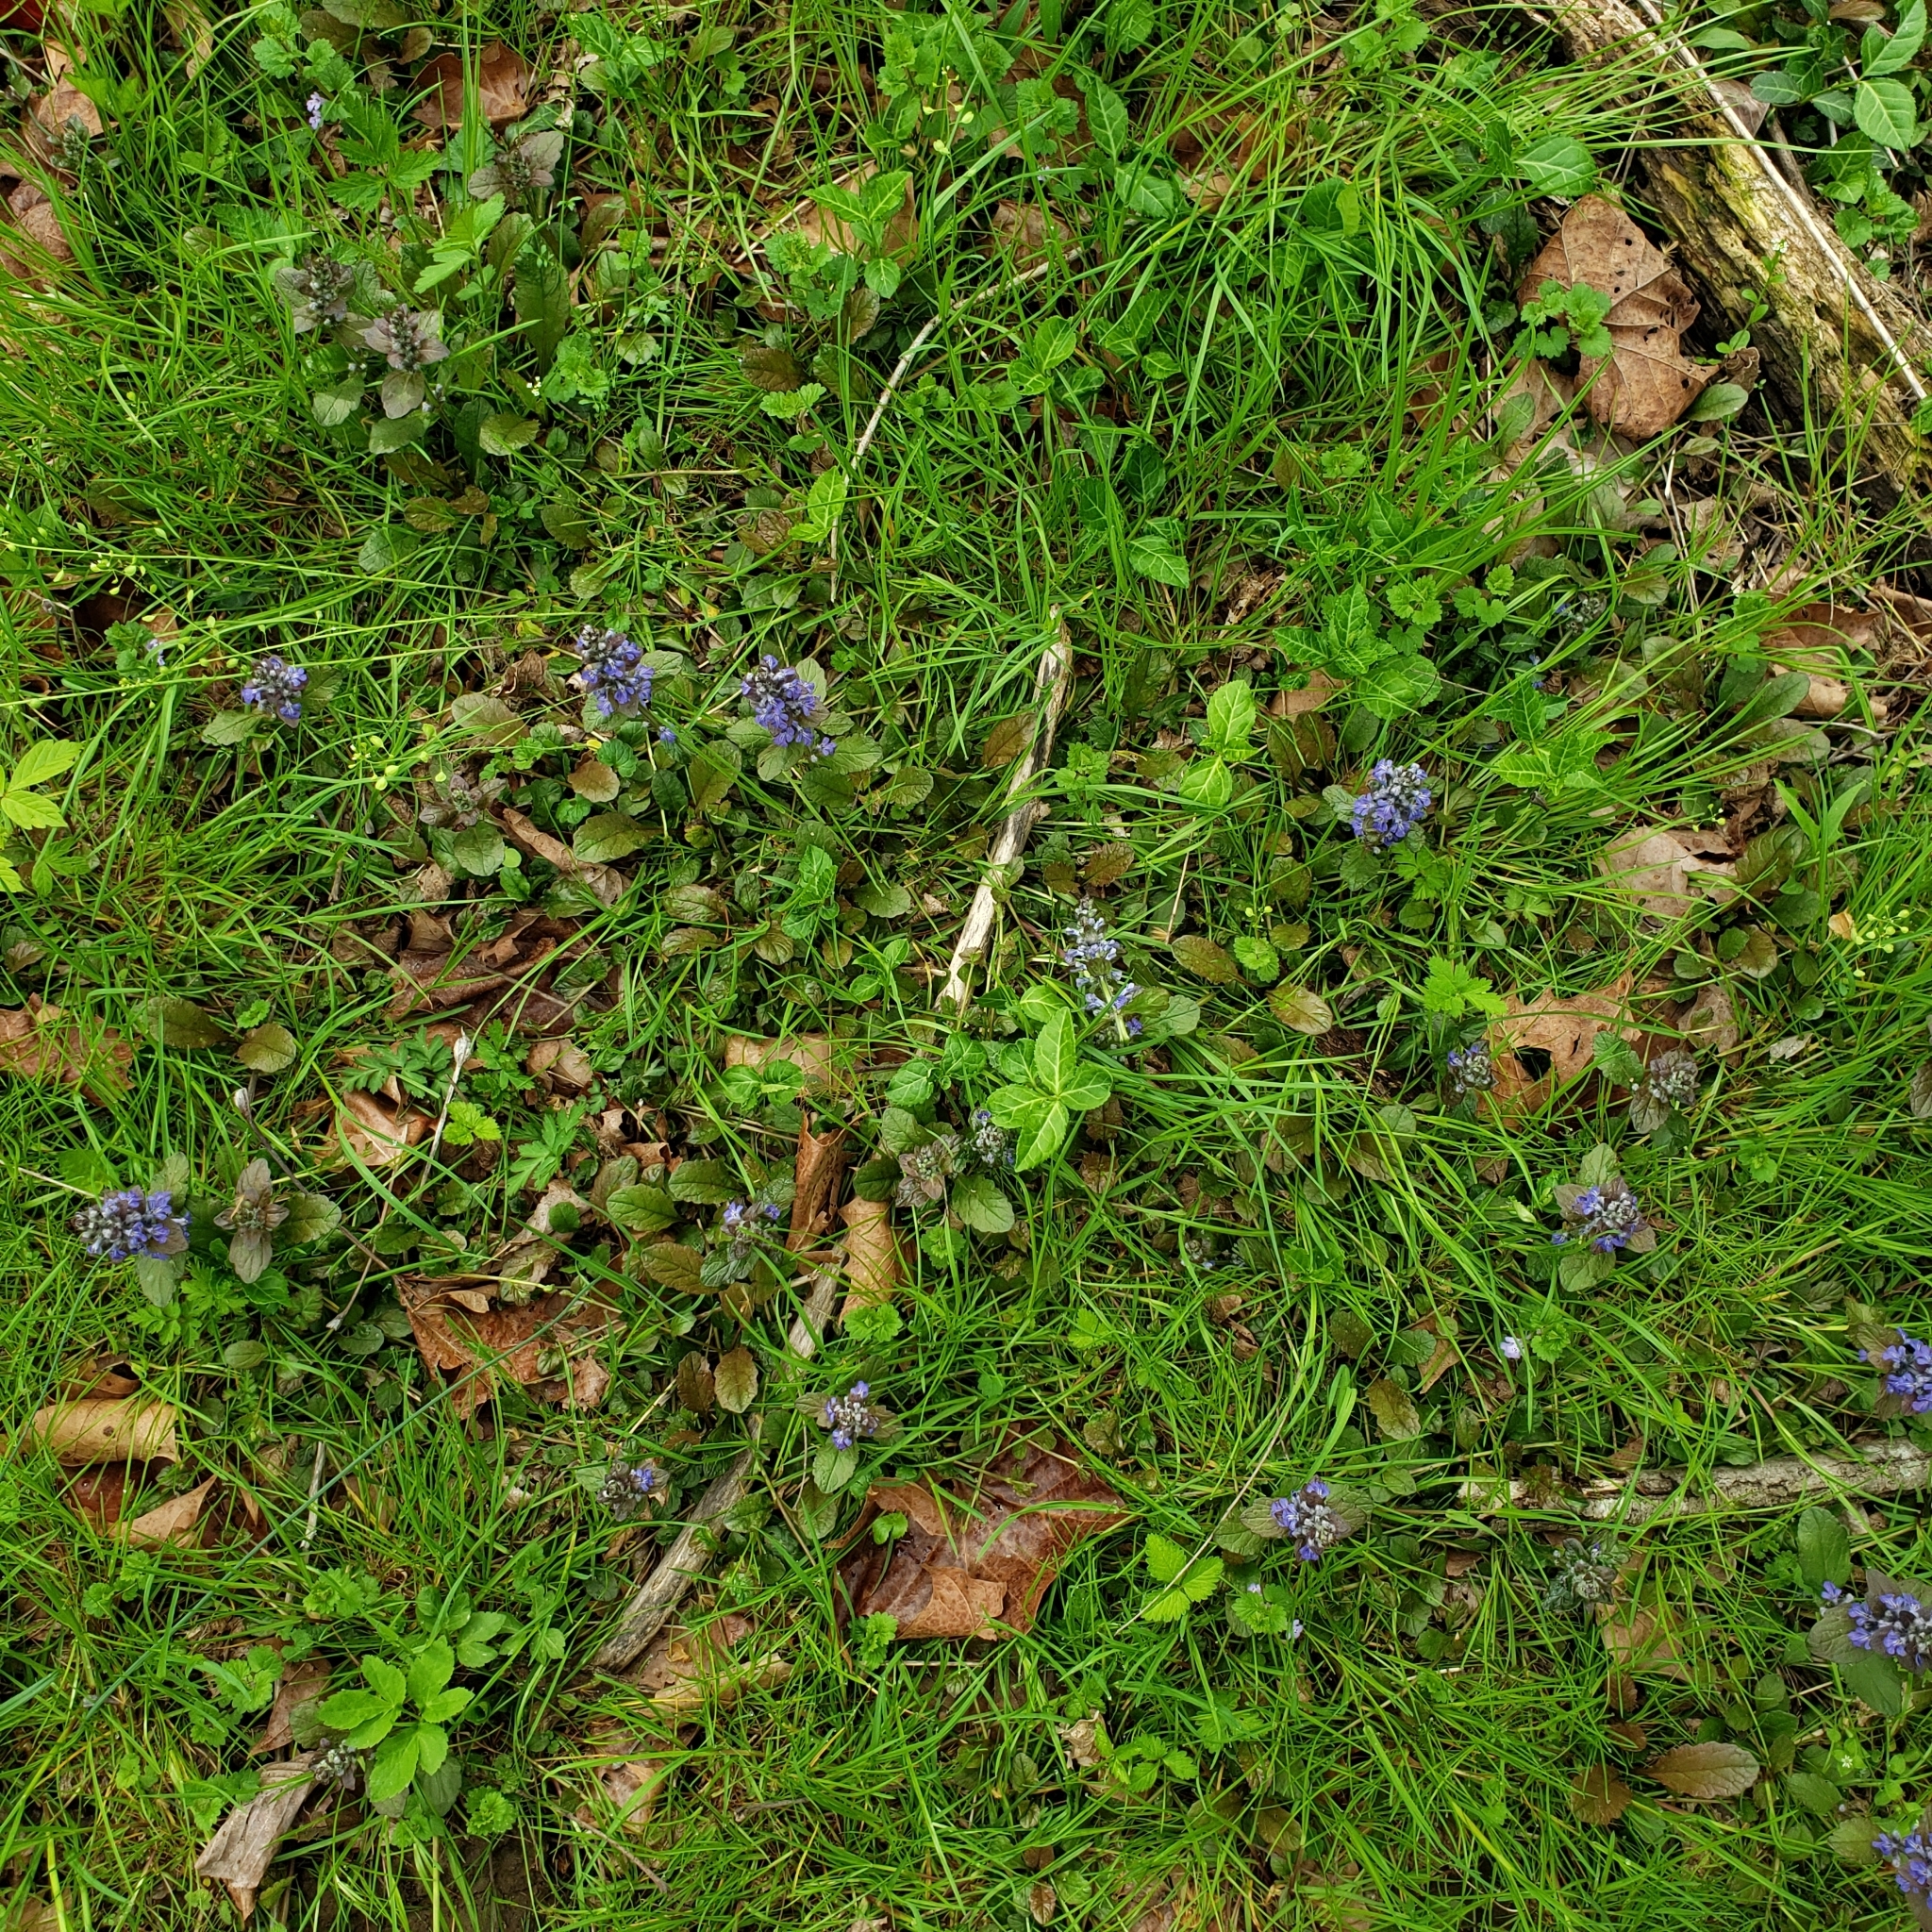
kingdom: Plantae
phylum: Tracheophyta
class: Magnoliopsida
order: Lamiales
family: Lamiaceae
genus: Ajuga
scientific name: Ajuga reptans
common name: Bugle
